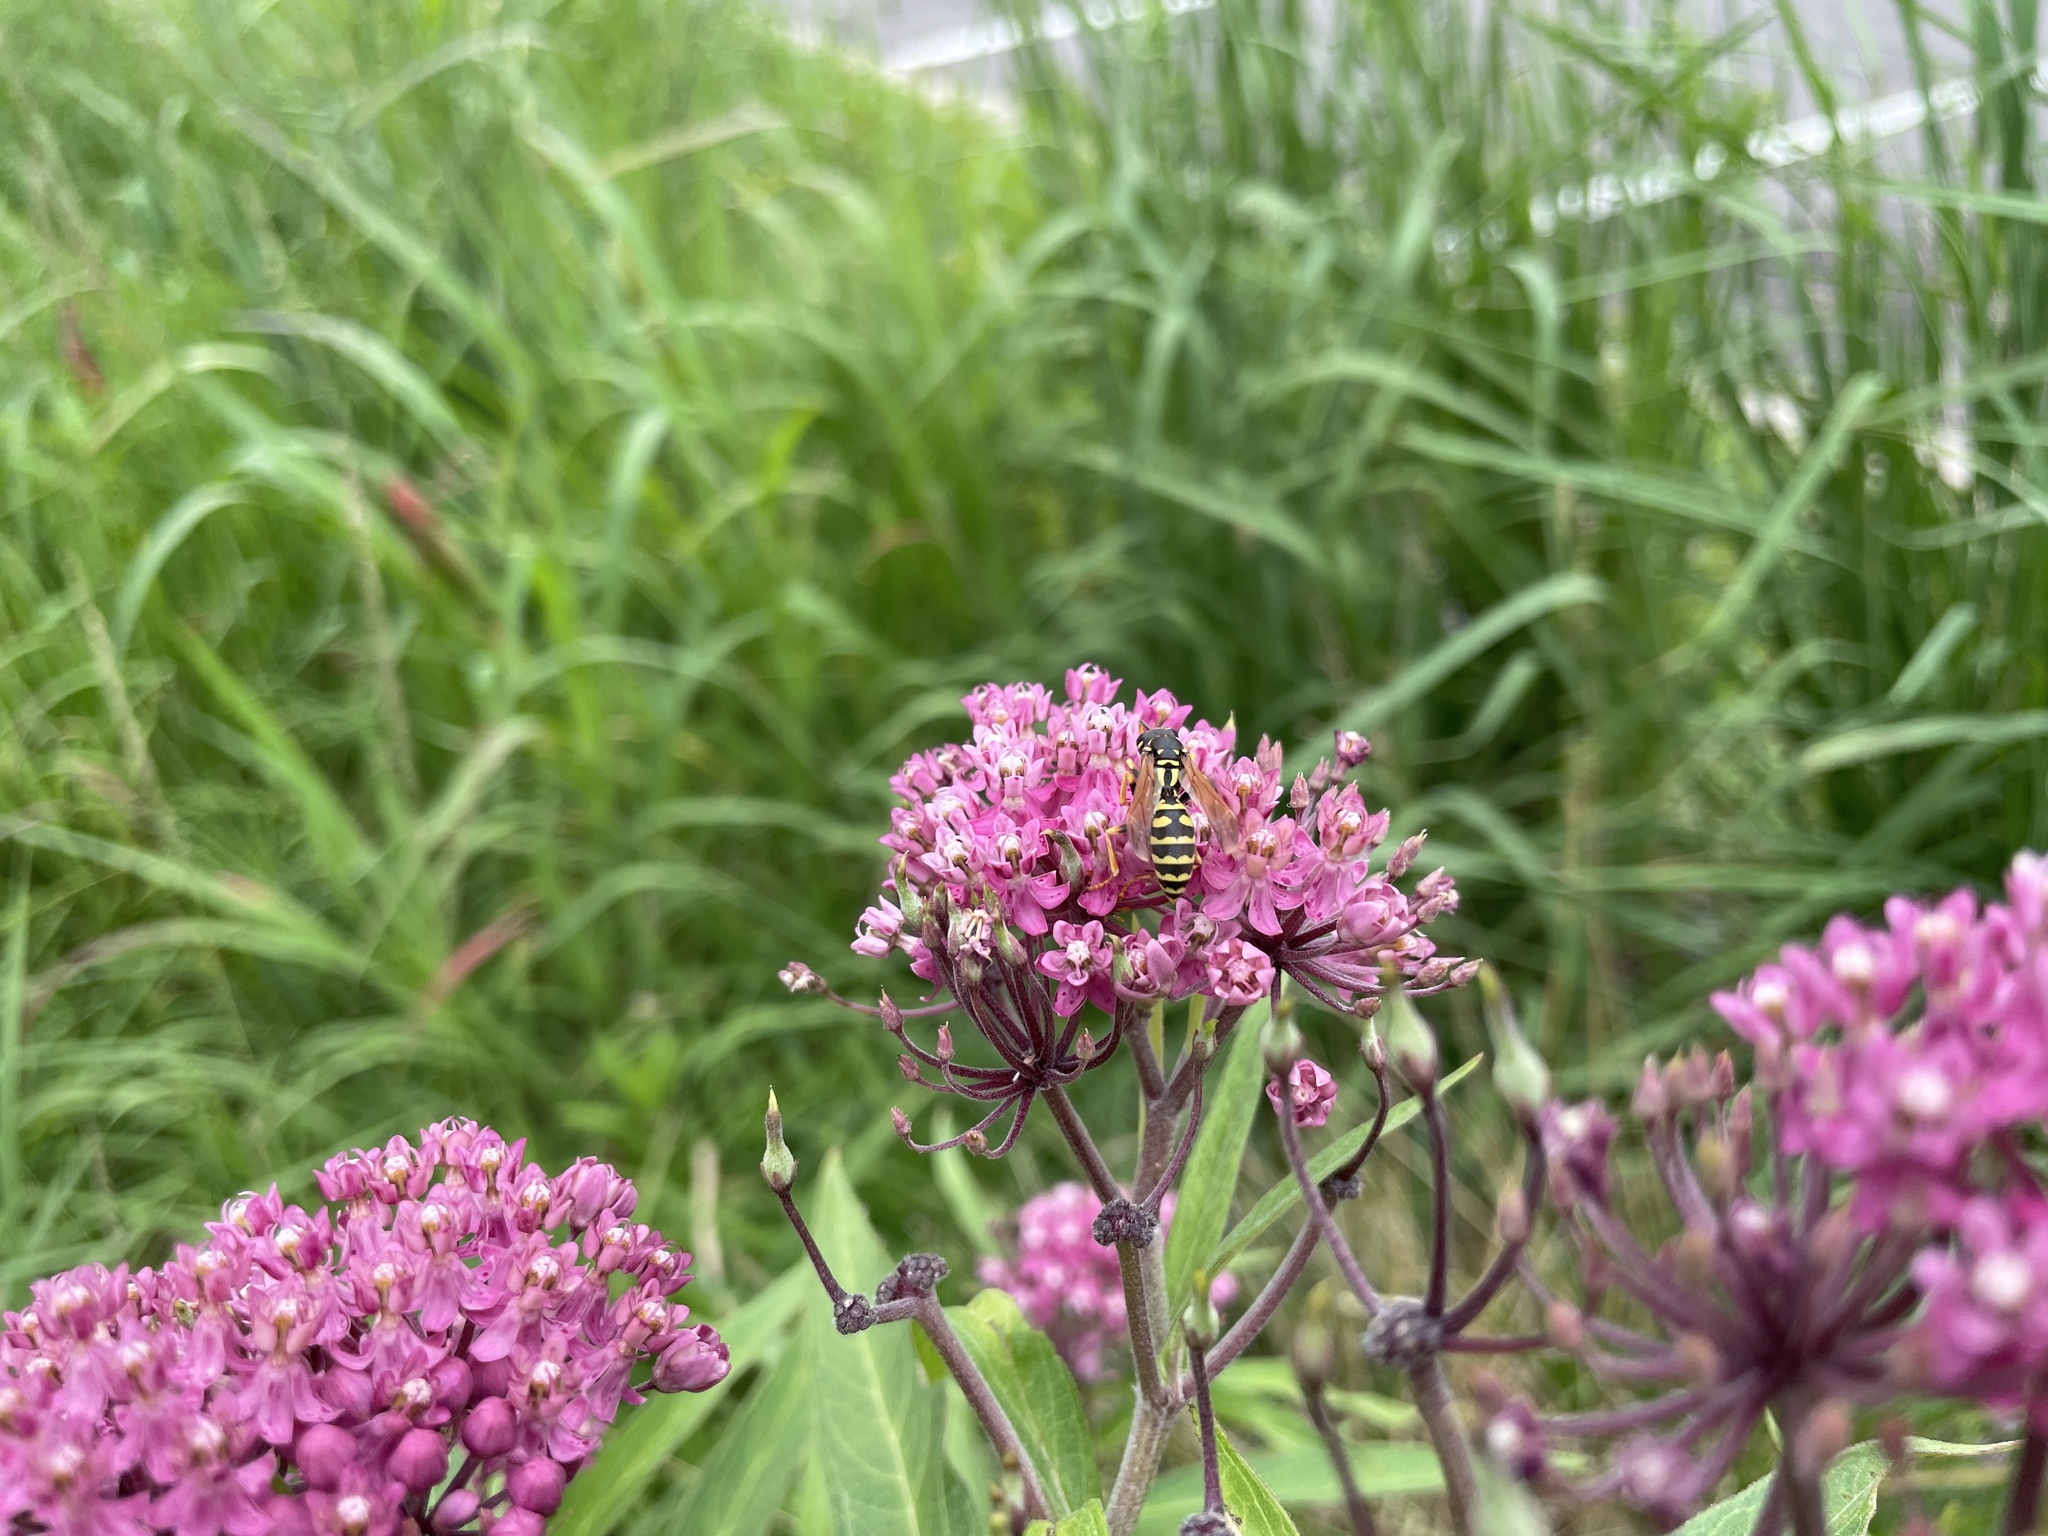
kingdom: Animalia
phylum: Arthropoda
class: Insecta
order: Hymenoptera
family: Eumenidae
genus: Polistes
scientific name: Polistes dominula
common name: Paper wasp
